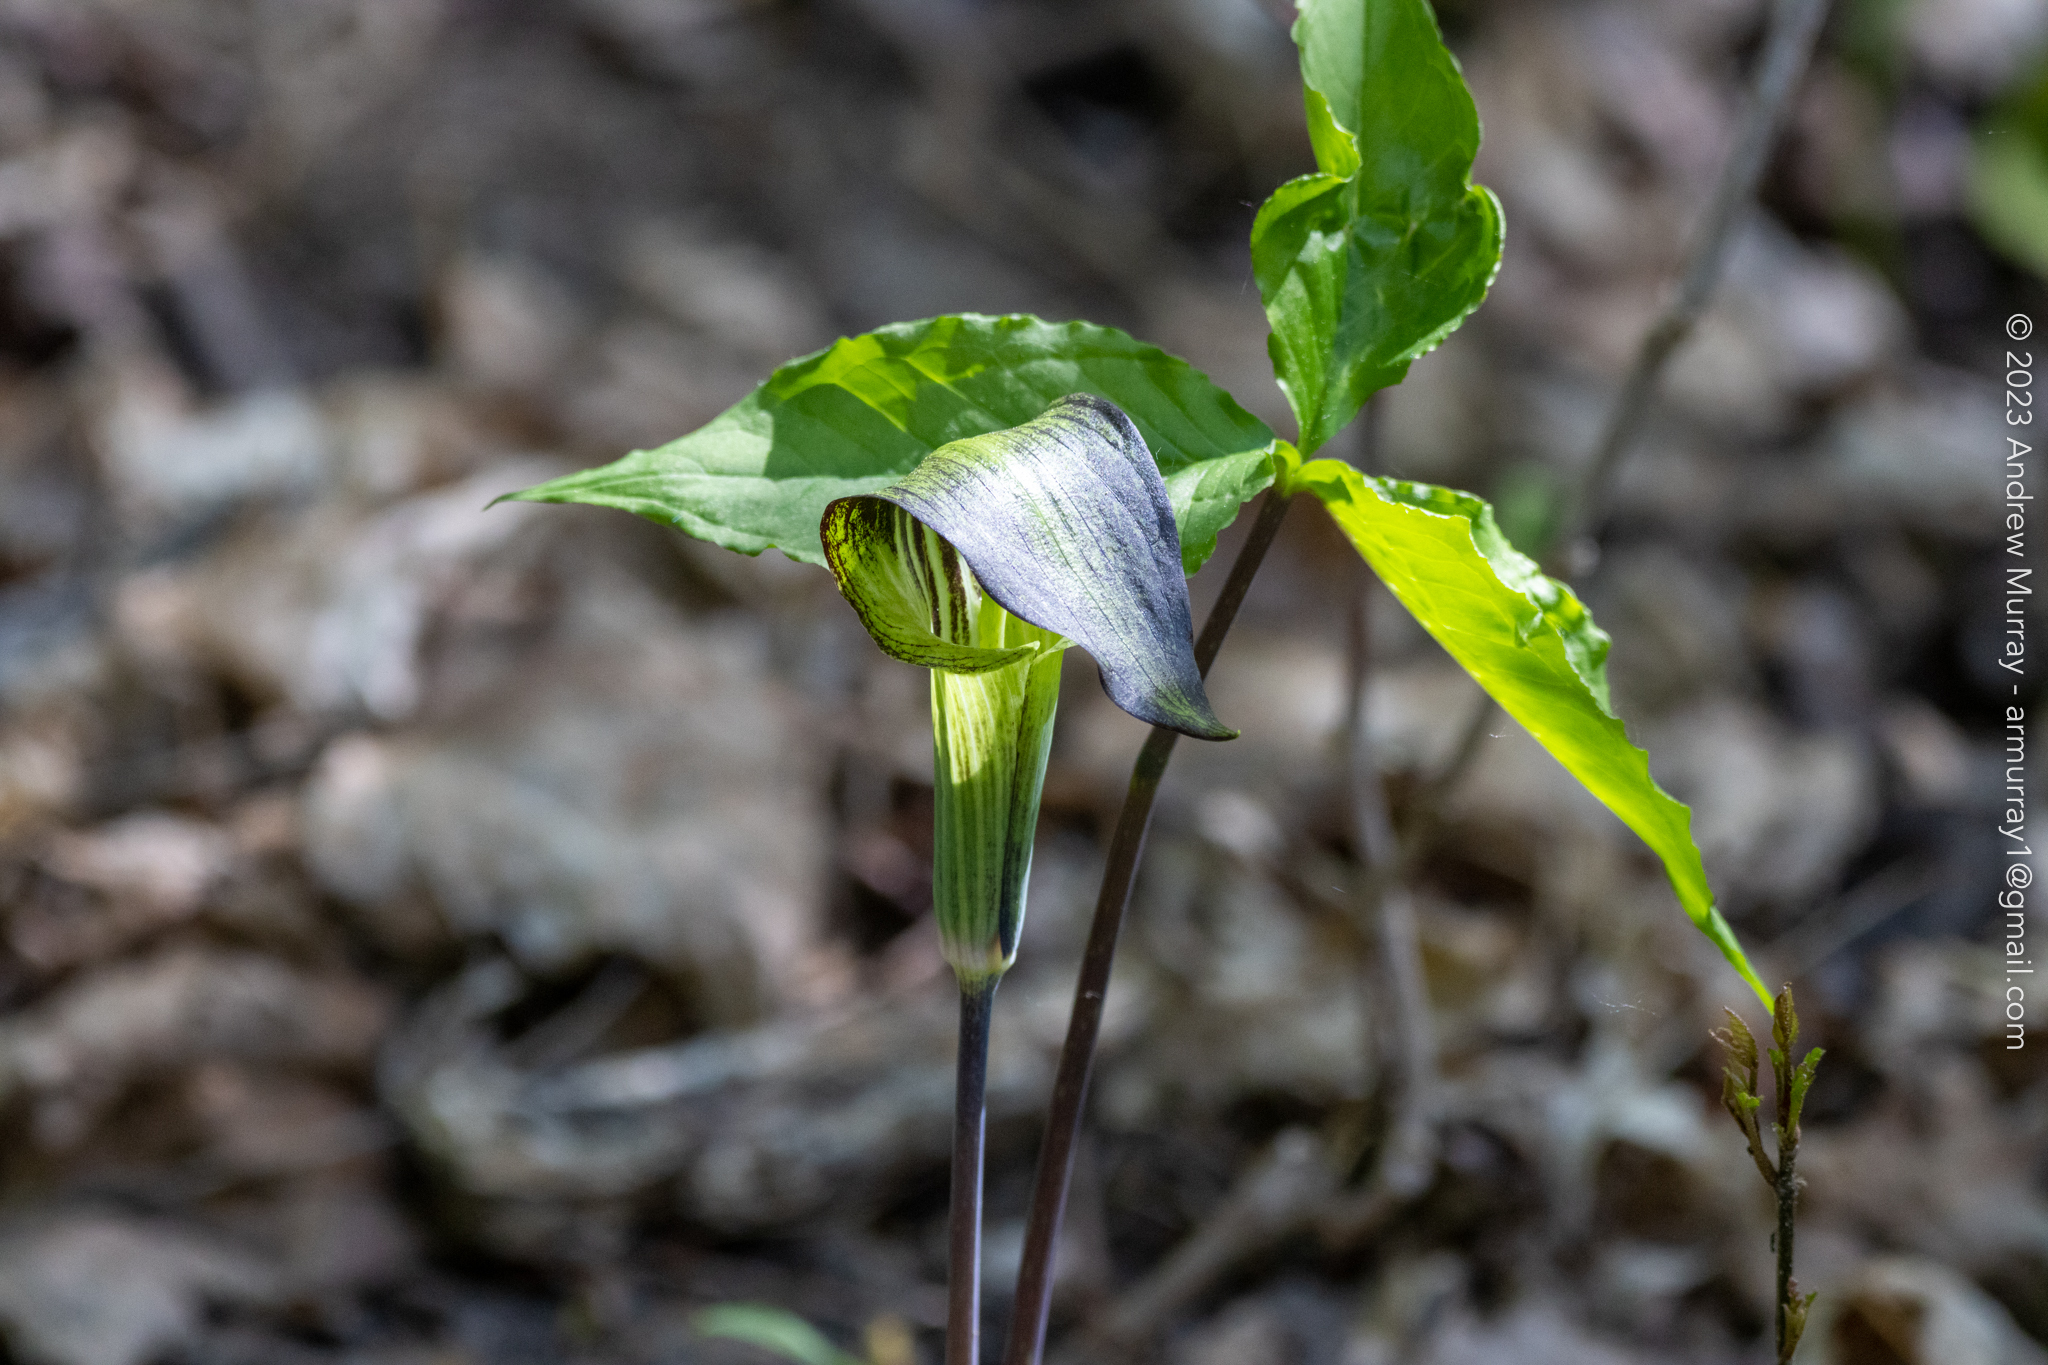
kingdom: Plantae
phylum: Tracheophyta
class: Liliopsida
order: Alismatales
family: Araceae
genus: Arisaema
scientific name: Arisaema triphyllum
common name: Jack-in-the-pulpit
